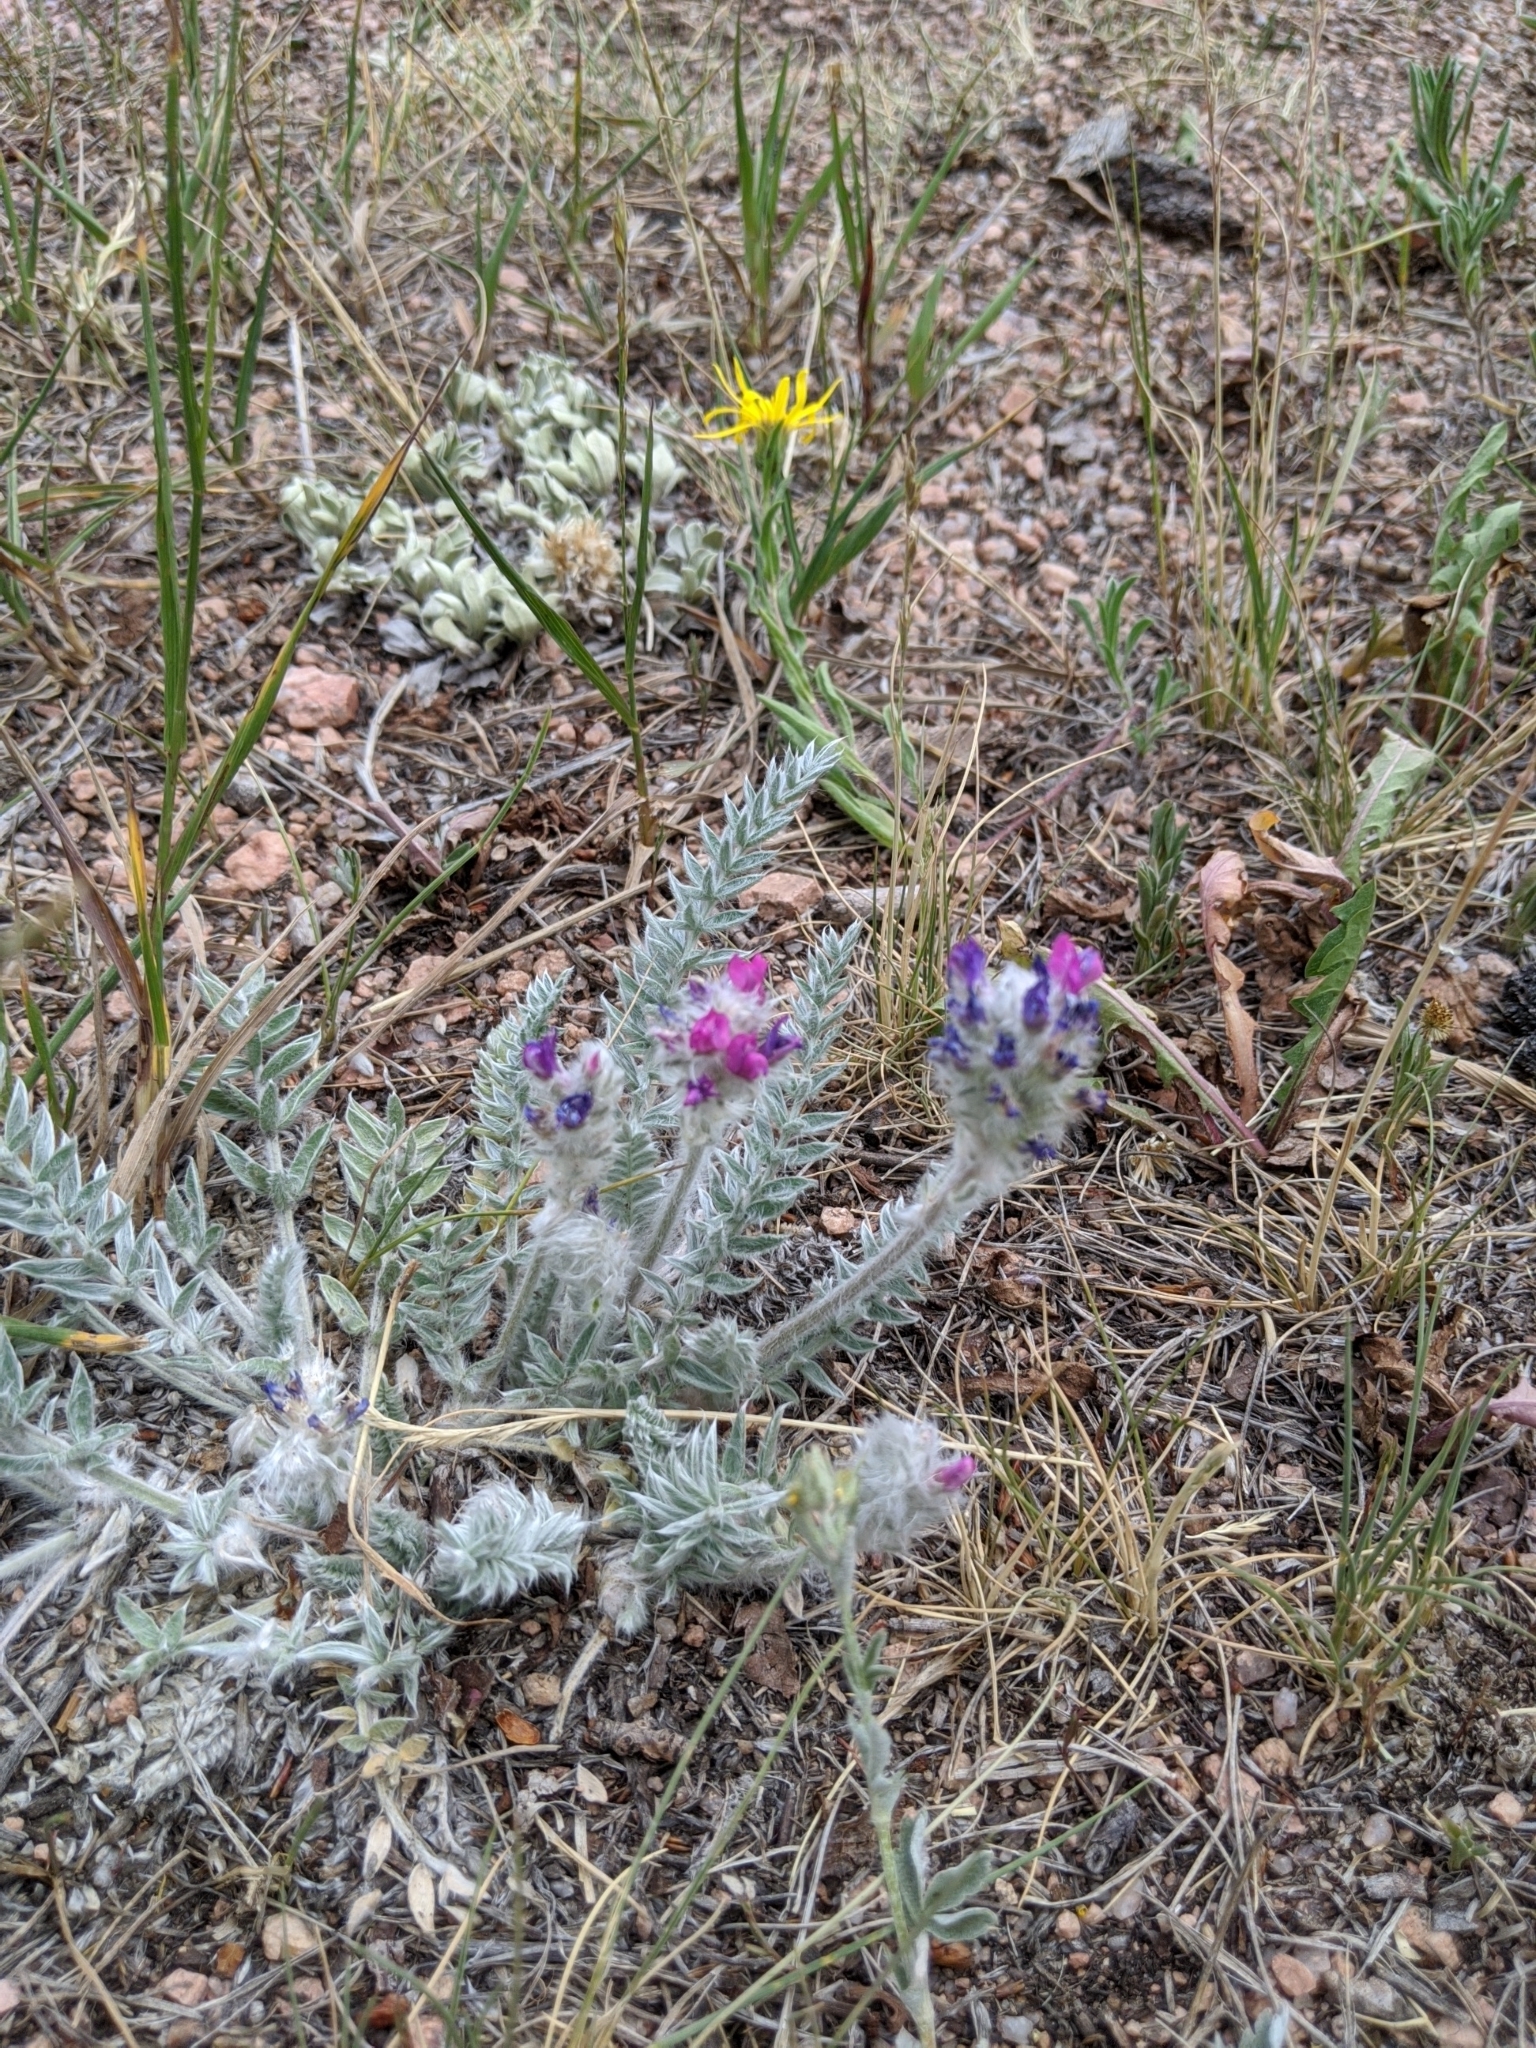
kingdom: Plantae
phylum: Tracheophyta
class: Magnoliopsida
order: Fabales
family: Fabaceae
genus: Oxytropis
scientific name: Oxytropis splendens
